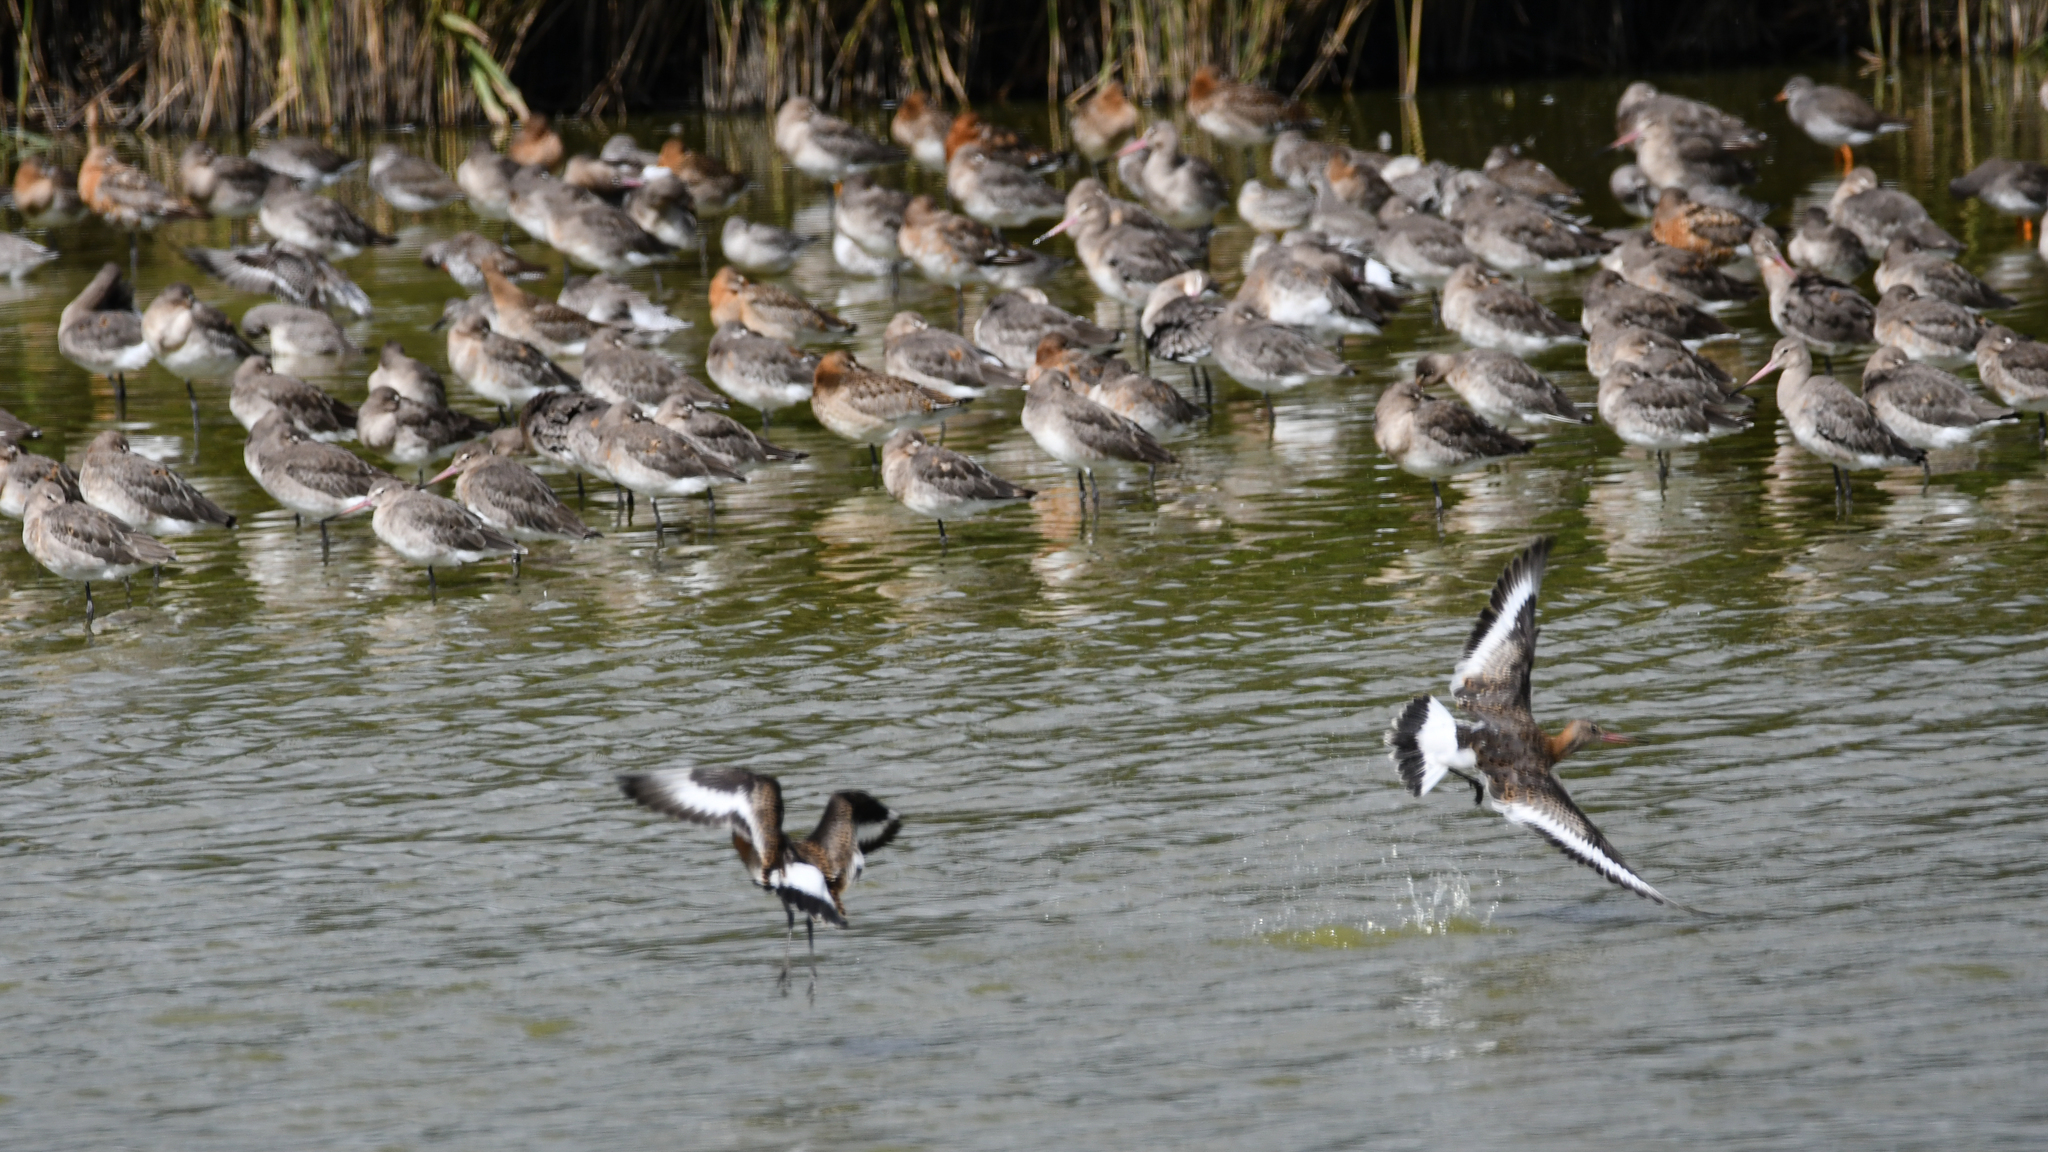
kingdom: Animalia
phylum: Chordata
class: Aves
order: Charadriiformes
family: Scolopacidae
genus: Limosa
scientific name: Limosa limosa
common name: Black-tailed godwit
